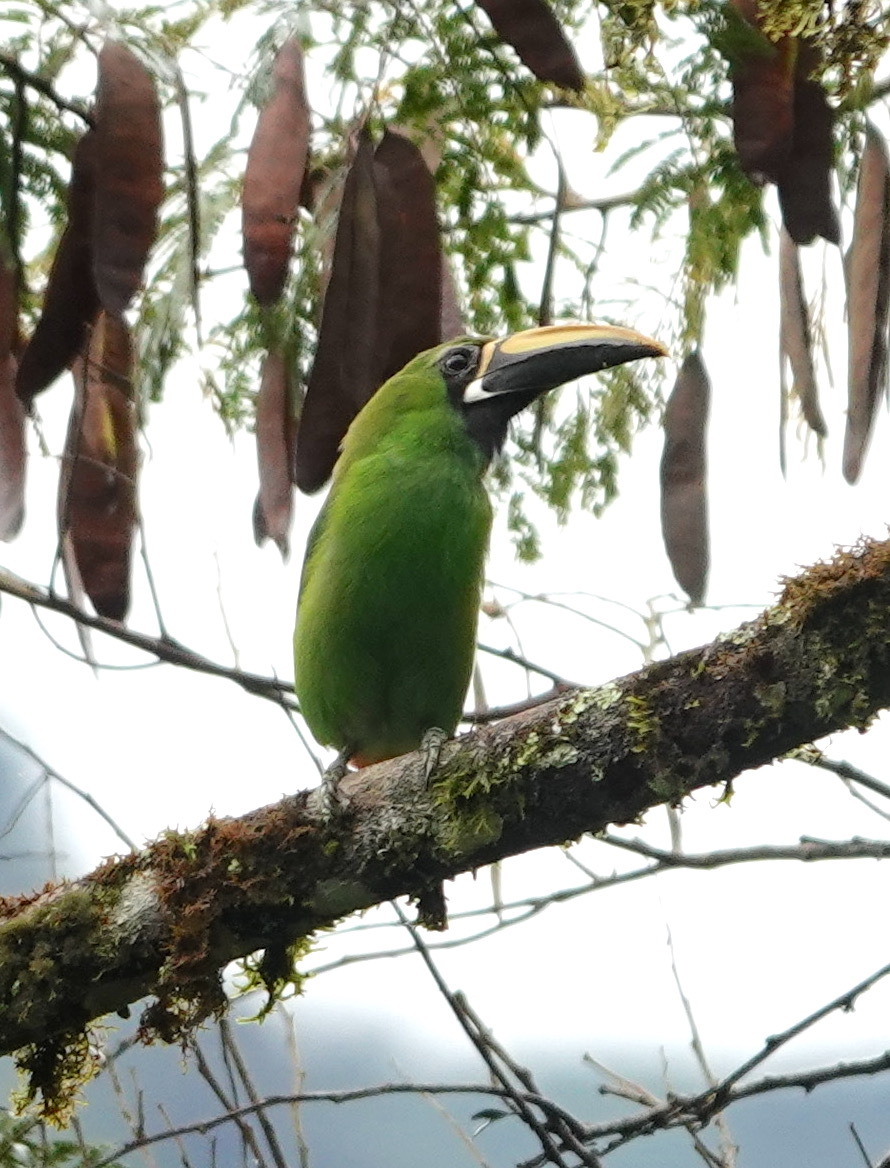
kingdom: Animalia
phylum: Chordata
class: Aves
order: Piciformes
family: Ramphastidae
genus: Aulacorhynchus
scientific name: Aulacorhynchus albivitta
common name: White-throated toucanet
